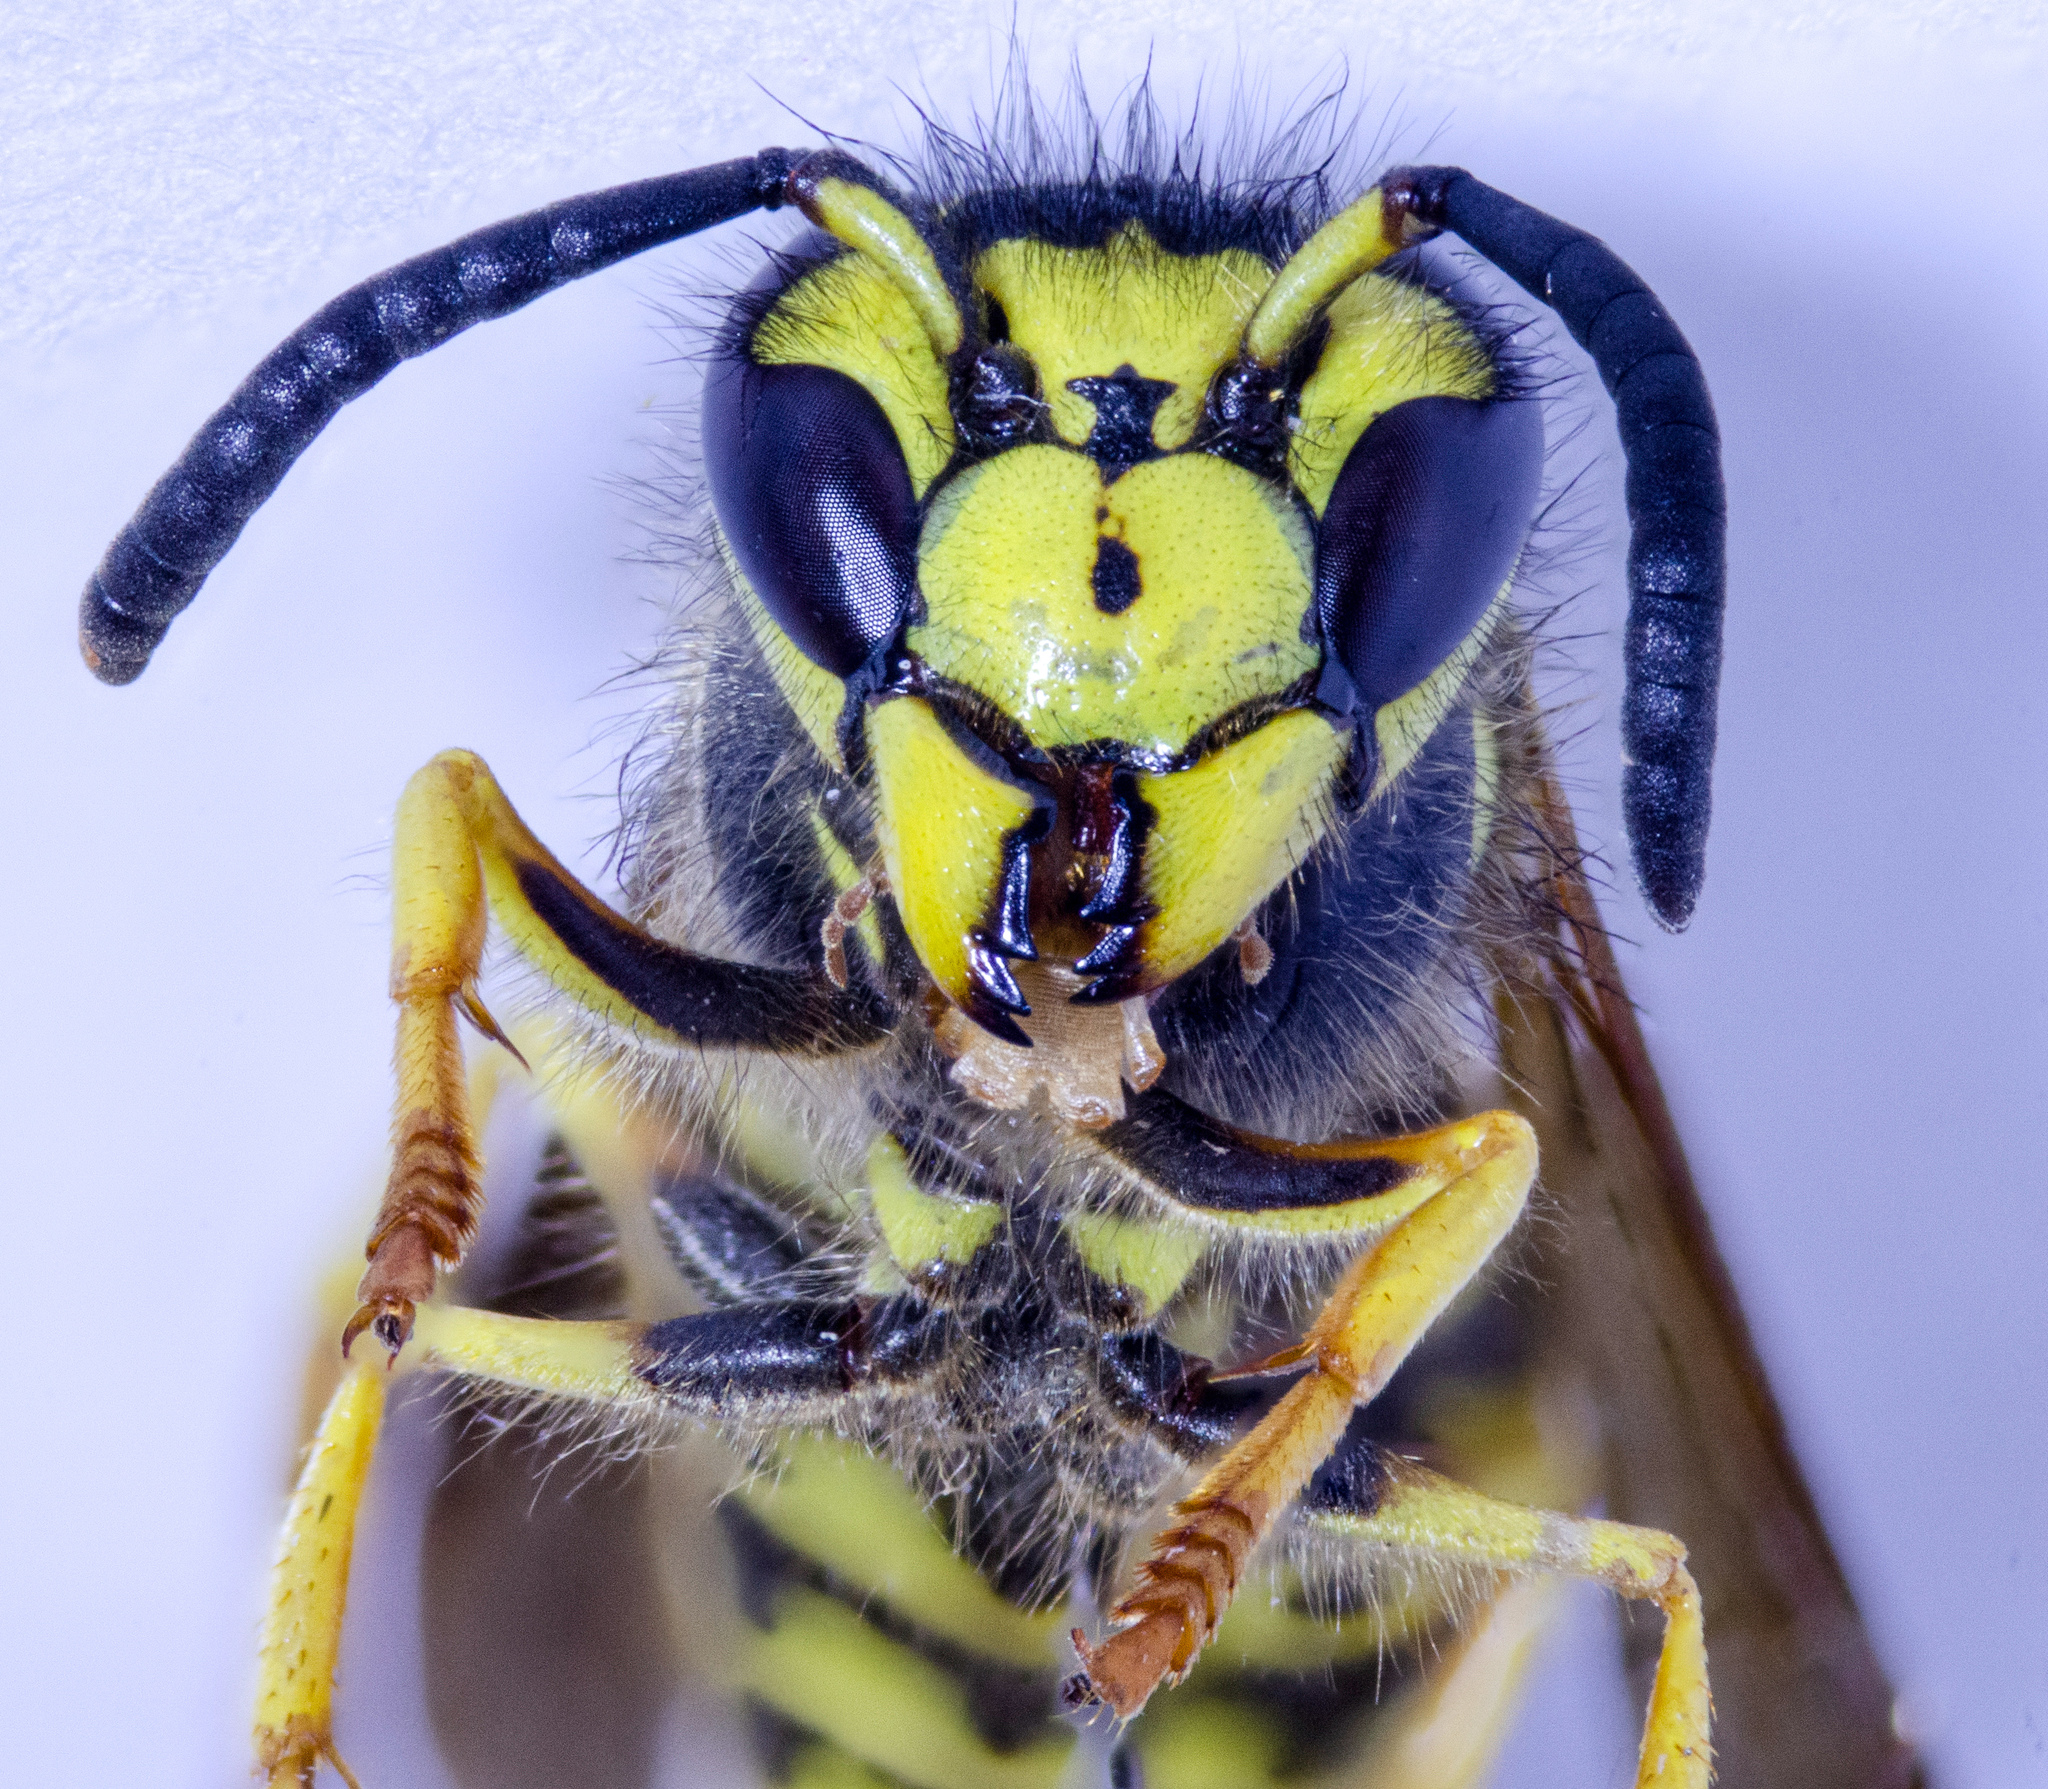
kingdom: Animalia
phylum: Arthropoda
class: Insecta
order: Hymenoptera
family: Vespidae
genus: Vespula
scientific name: Vespula pensylvanica
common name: Western yellowjacket
